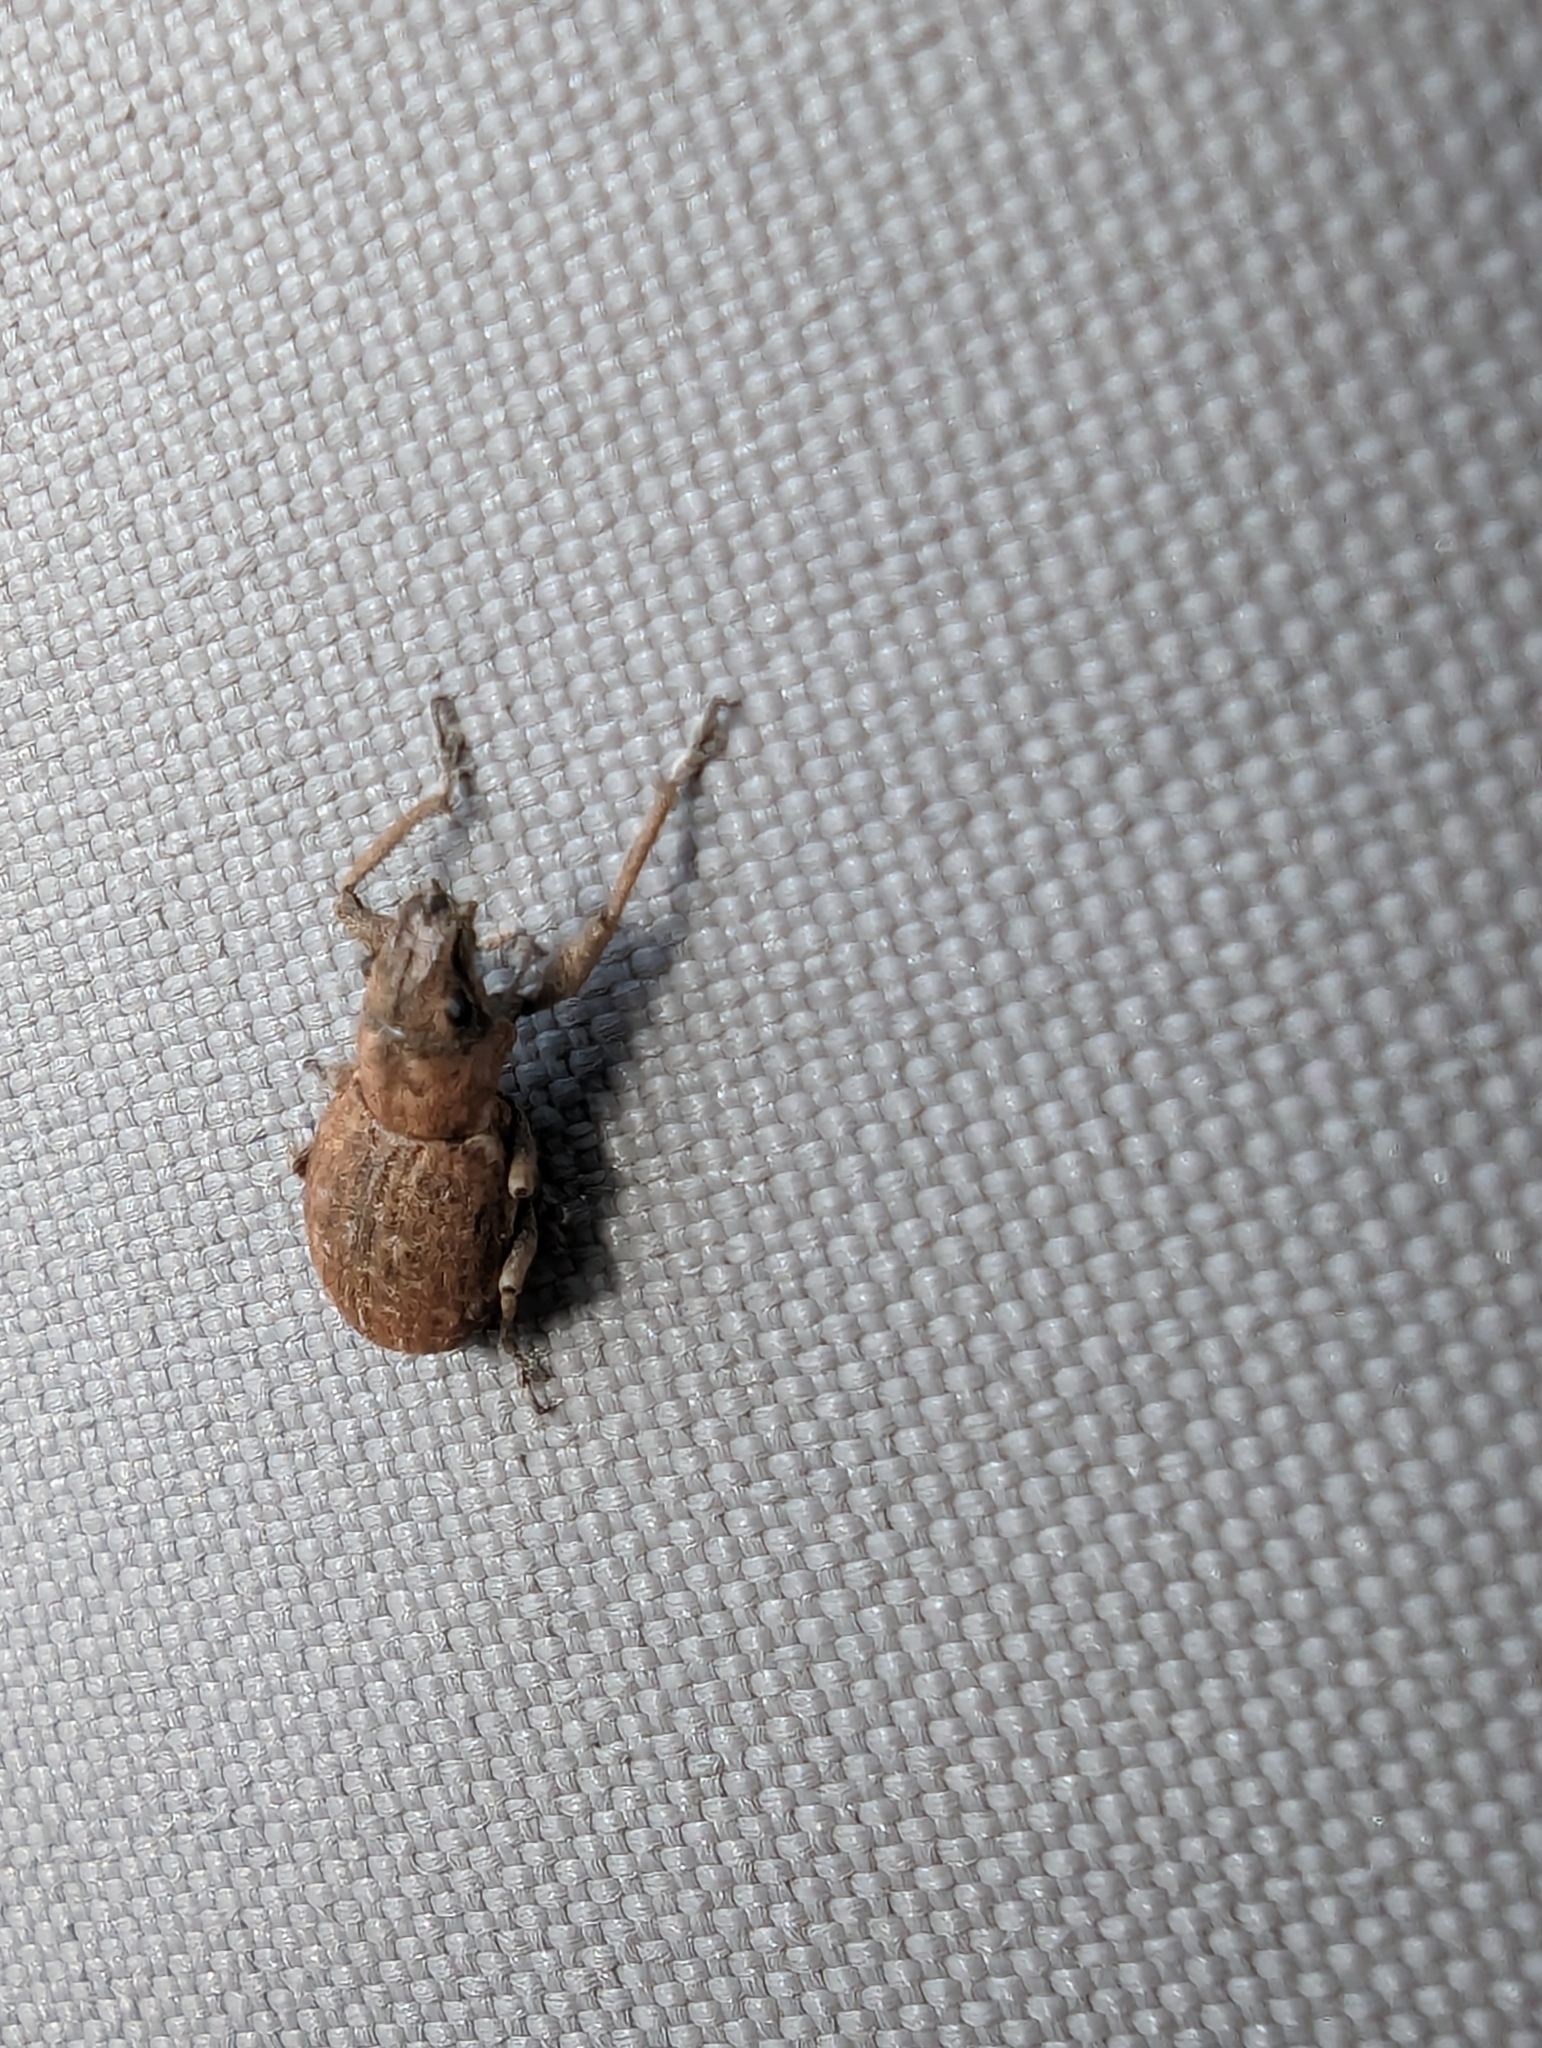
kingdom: Animalia
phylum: Arthropoda
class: Insecta
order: Coleoptera
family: Curculionidae
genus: Naupactus
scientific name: Naupactus cervinus
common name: Fuller rose beetle
